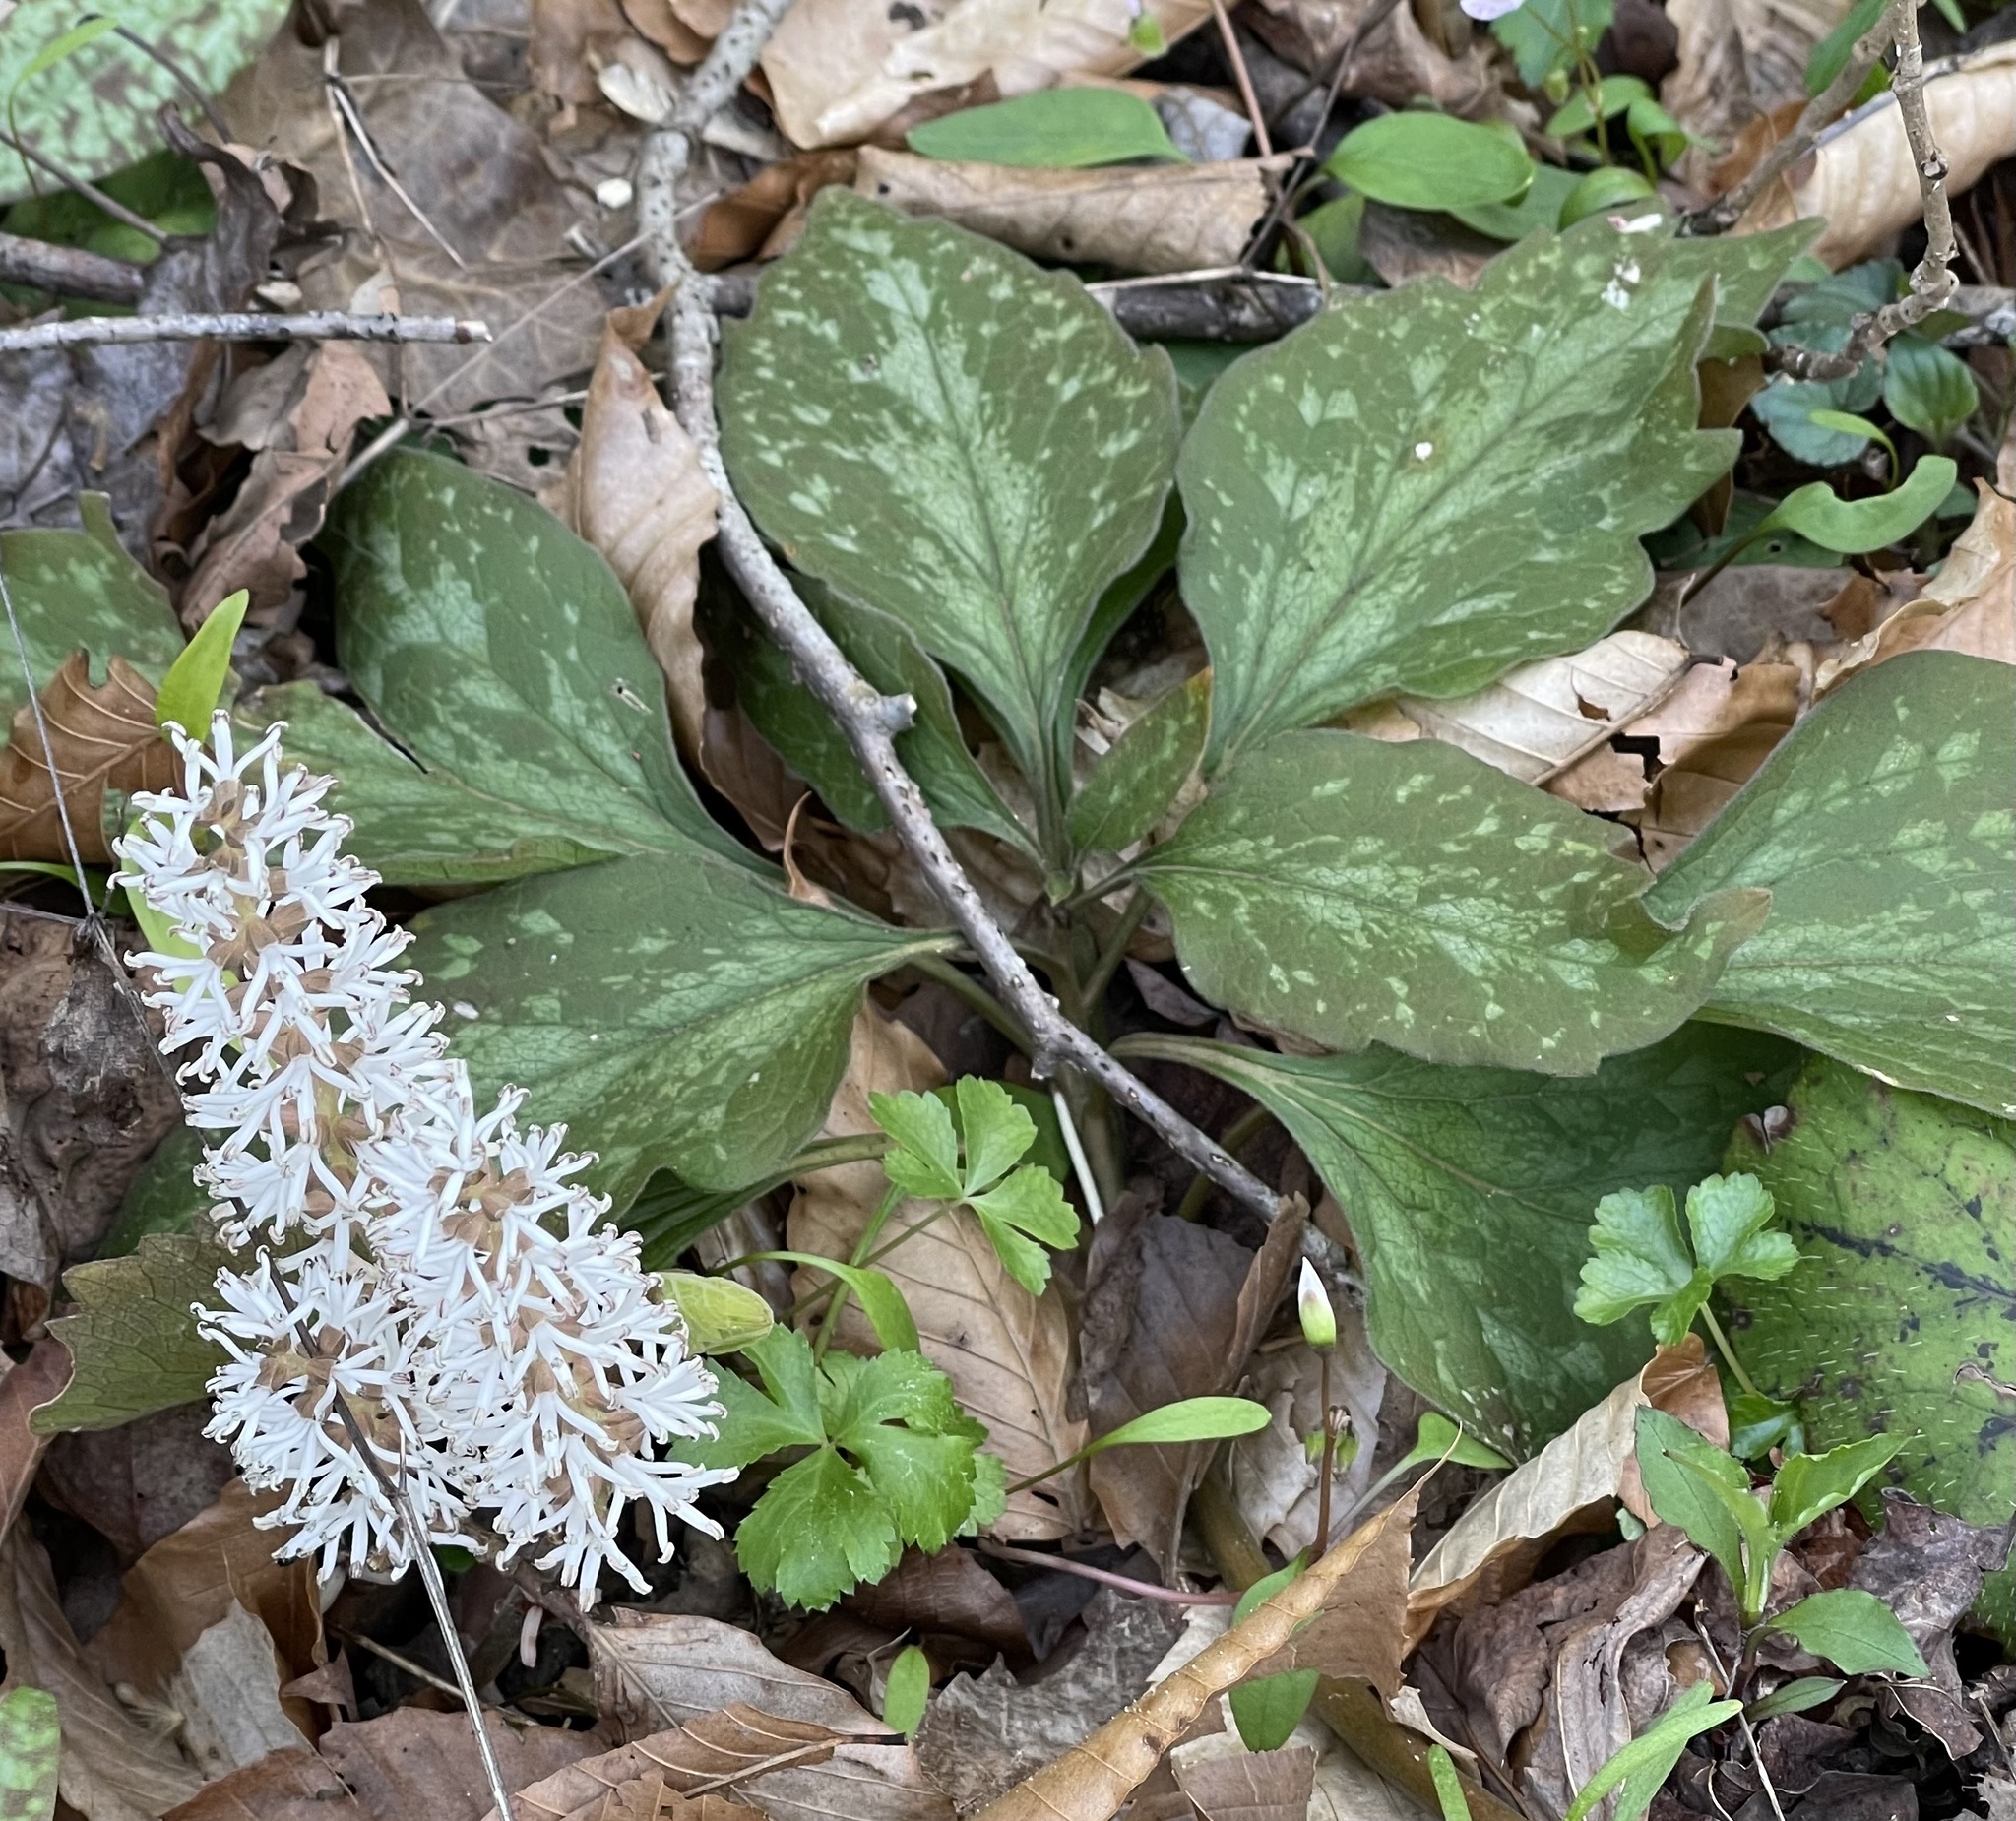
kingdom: Plantae
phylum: Tracheophyta
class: Magnoliopsida
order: Buxales
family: Buxaceae
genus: Pachysandra
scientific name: Pachysandra procumbens
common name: Mountain-spurge
